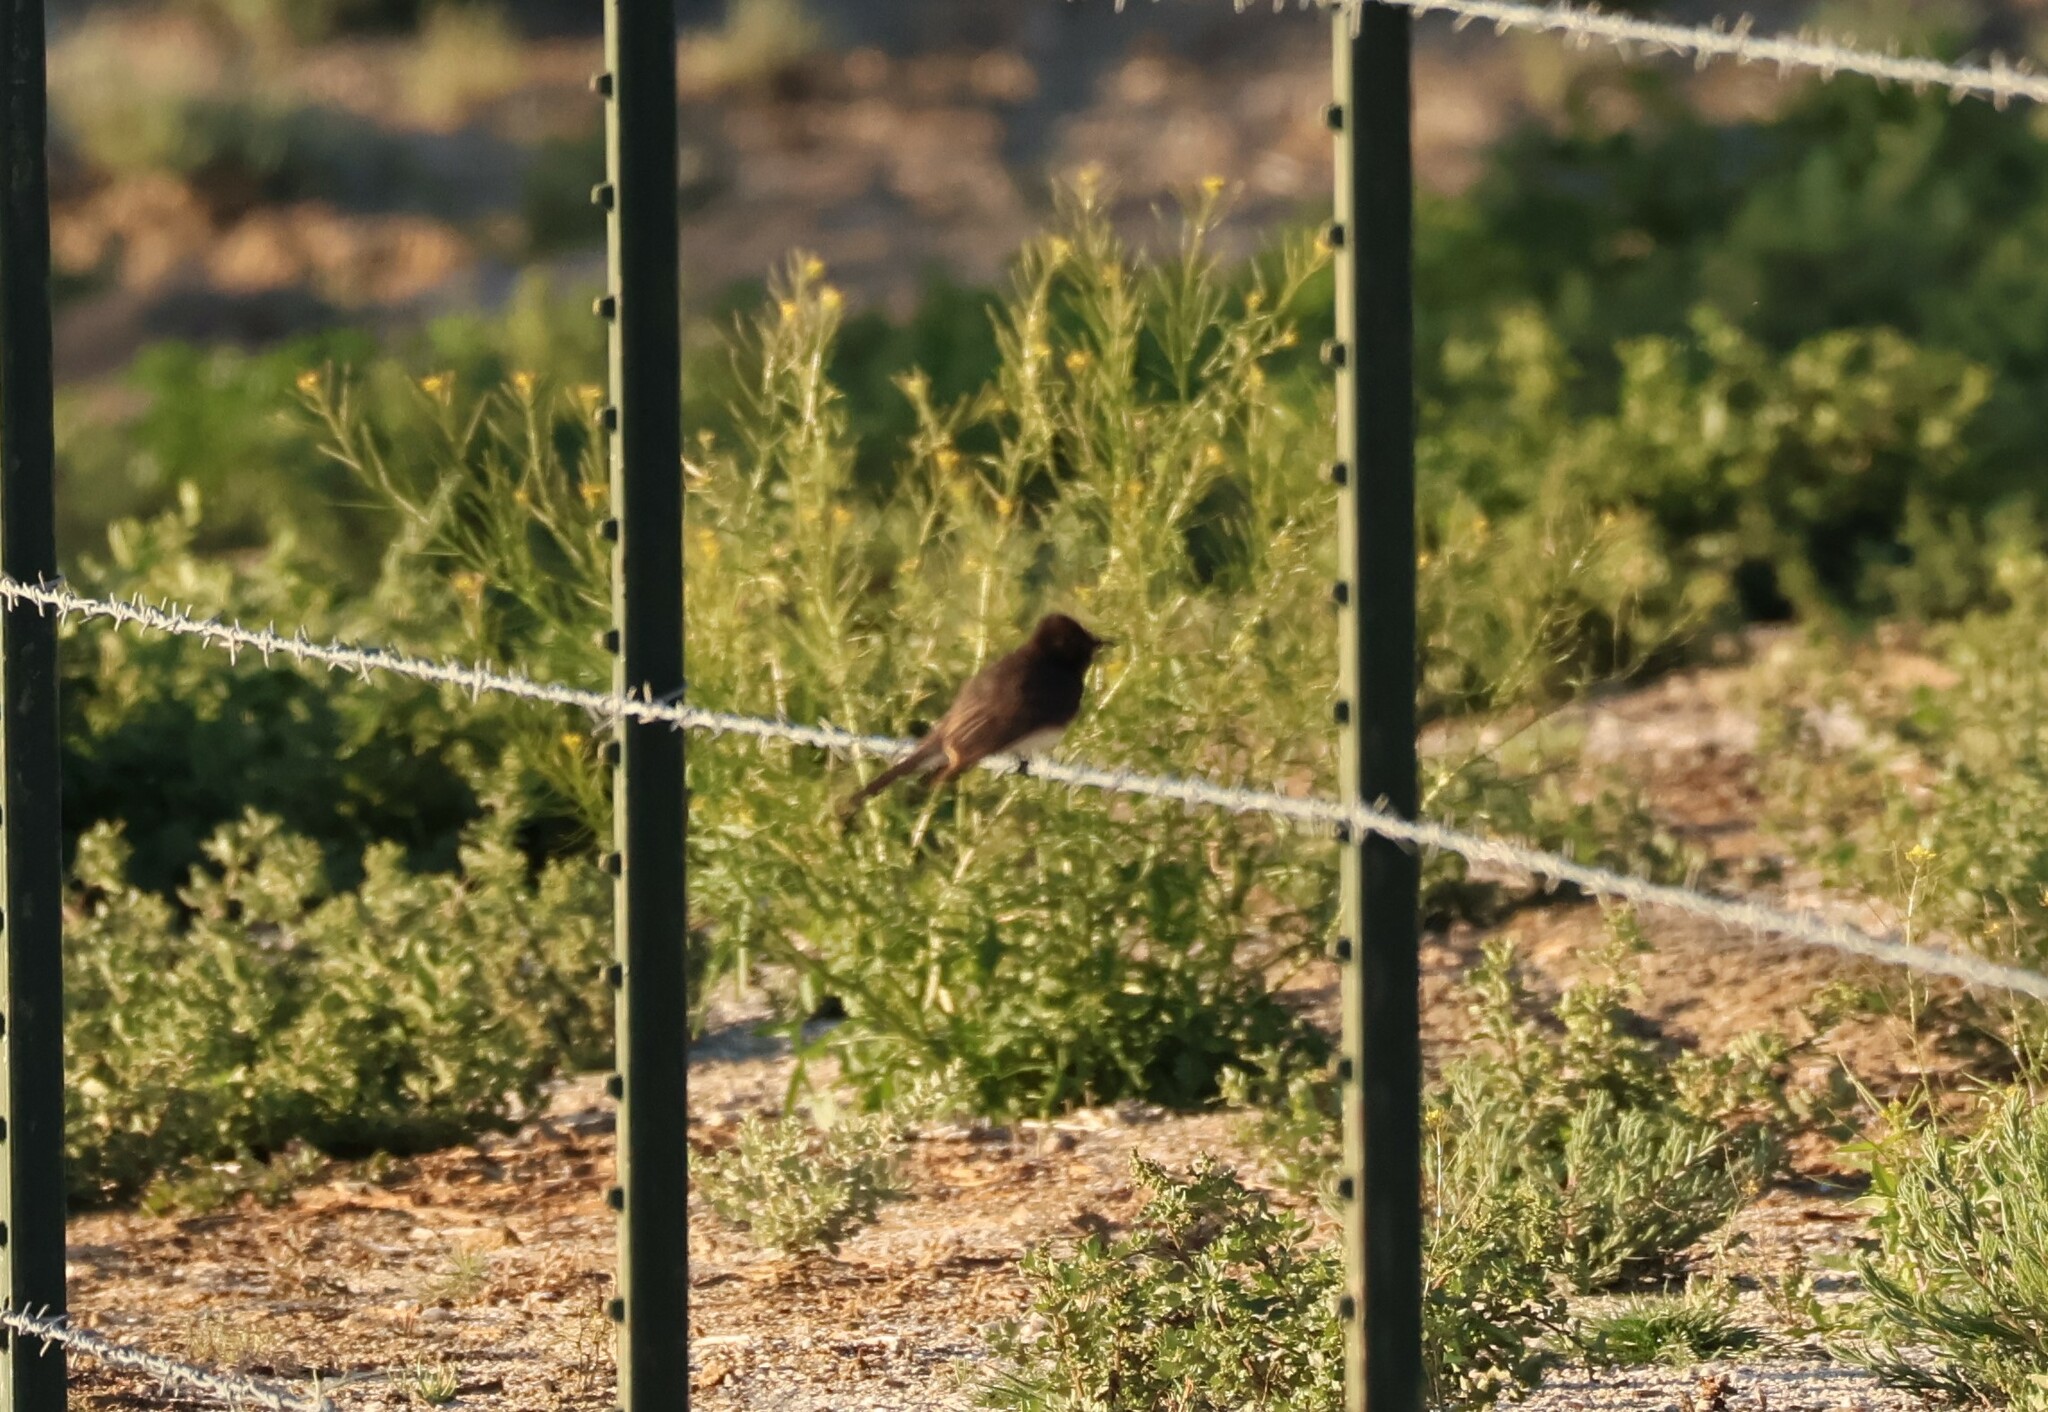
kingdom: Animalia
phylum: Chordata
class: Aves
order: Passeriformes
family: Tyrannidae
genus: Sayornis
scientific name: Sayornis nigricans
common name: Black phoebe
